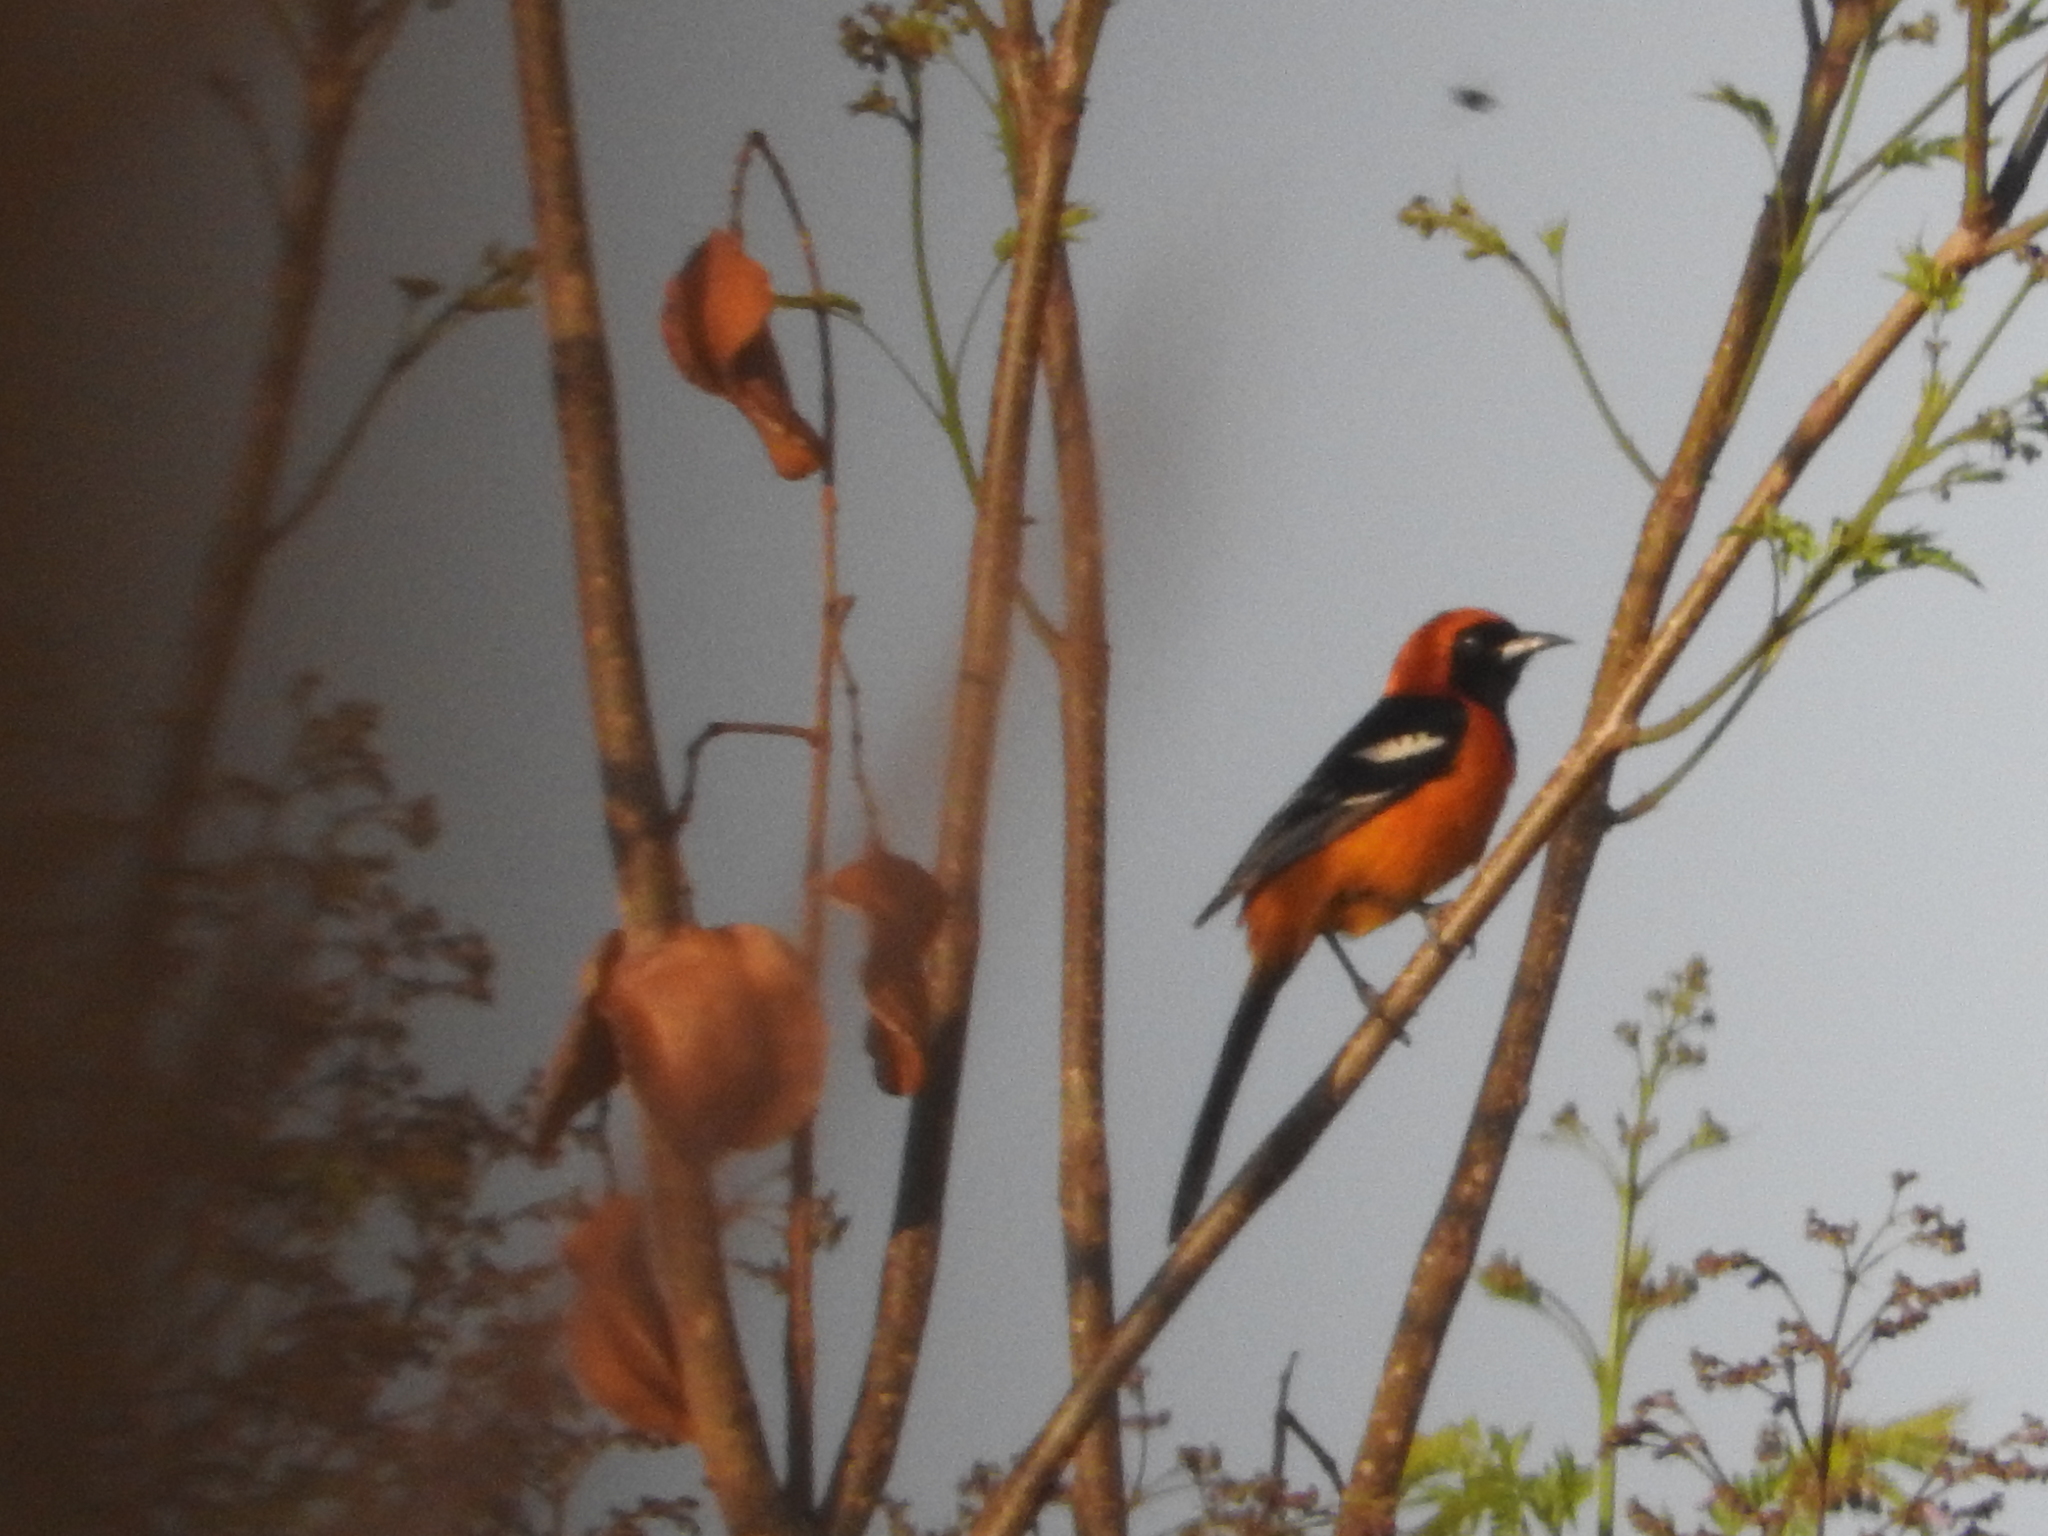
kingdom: Animalia
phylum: Chordata
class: Aves
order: Passeriformes
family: Icteridae
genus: Icterus
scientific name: Icterus cucullatus
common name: Hooded oriole
